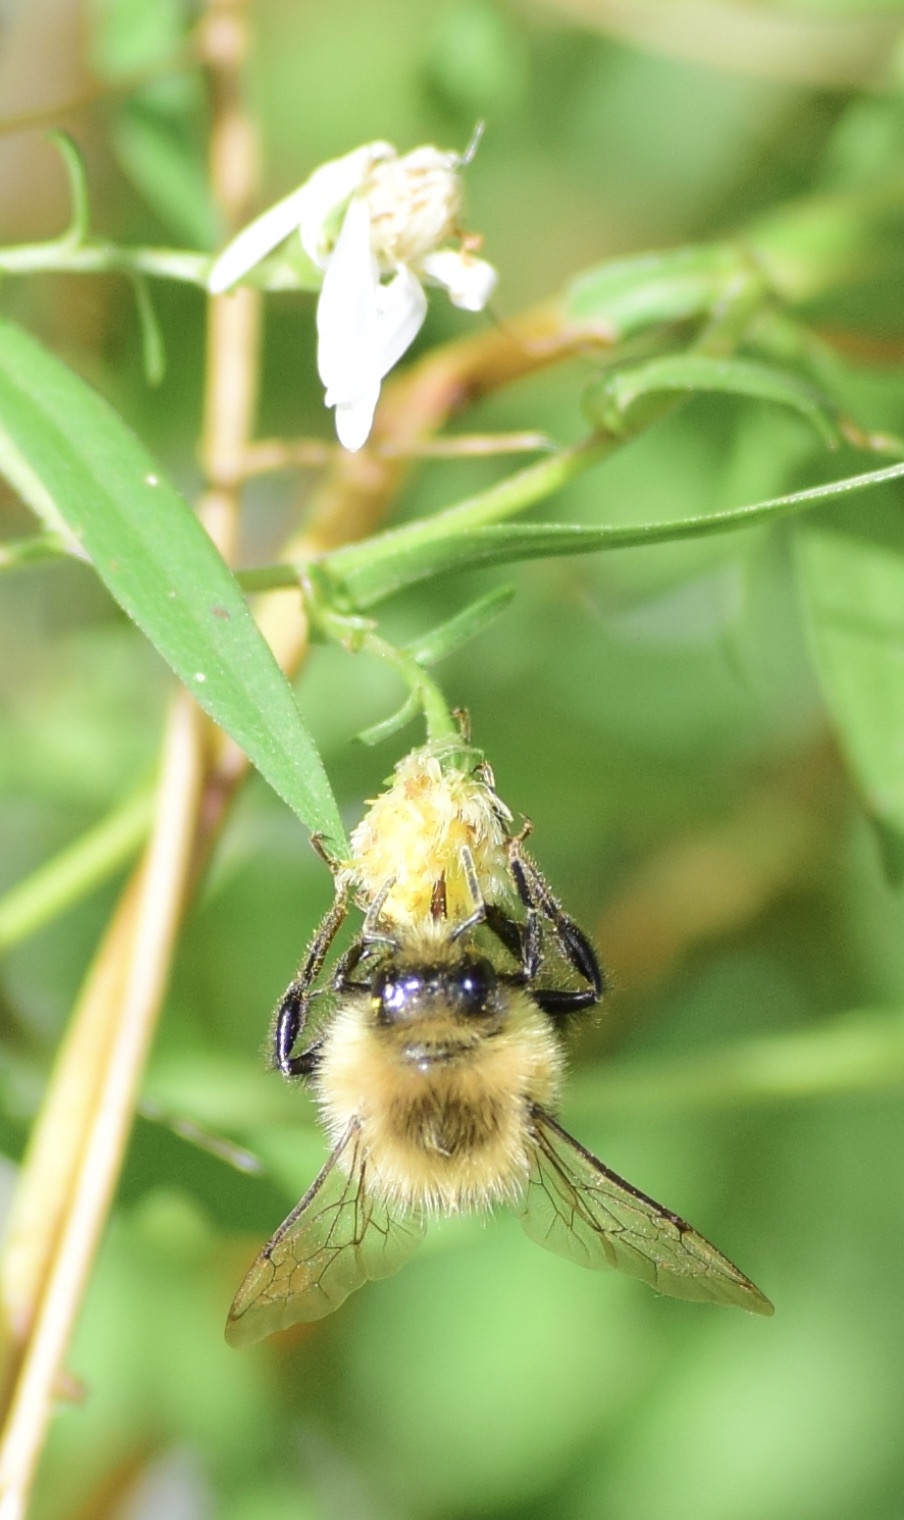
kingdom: Animalia
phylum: Arthropoda
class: Insecta
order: Hymenoptera
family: Apidae
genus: Bombus
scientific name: Bombus impatiens
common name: Common eastern bumble bee
